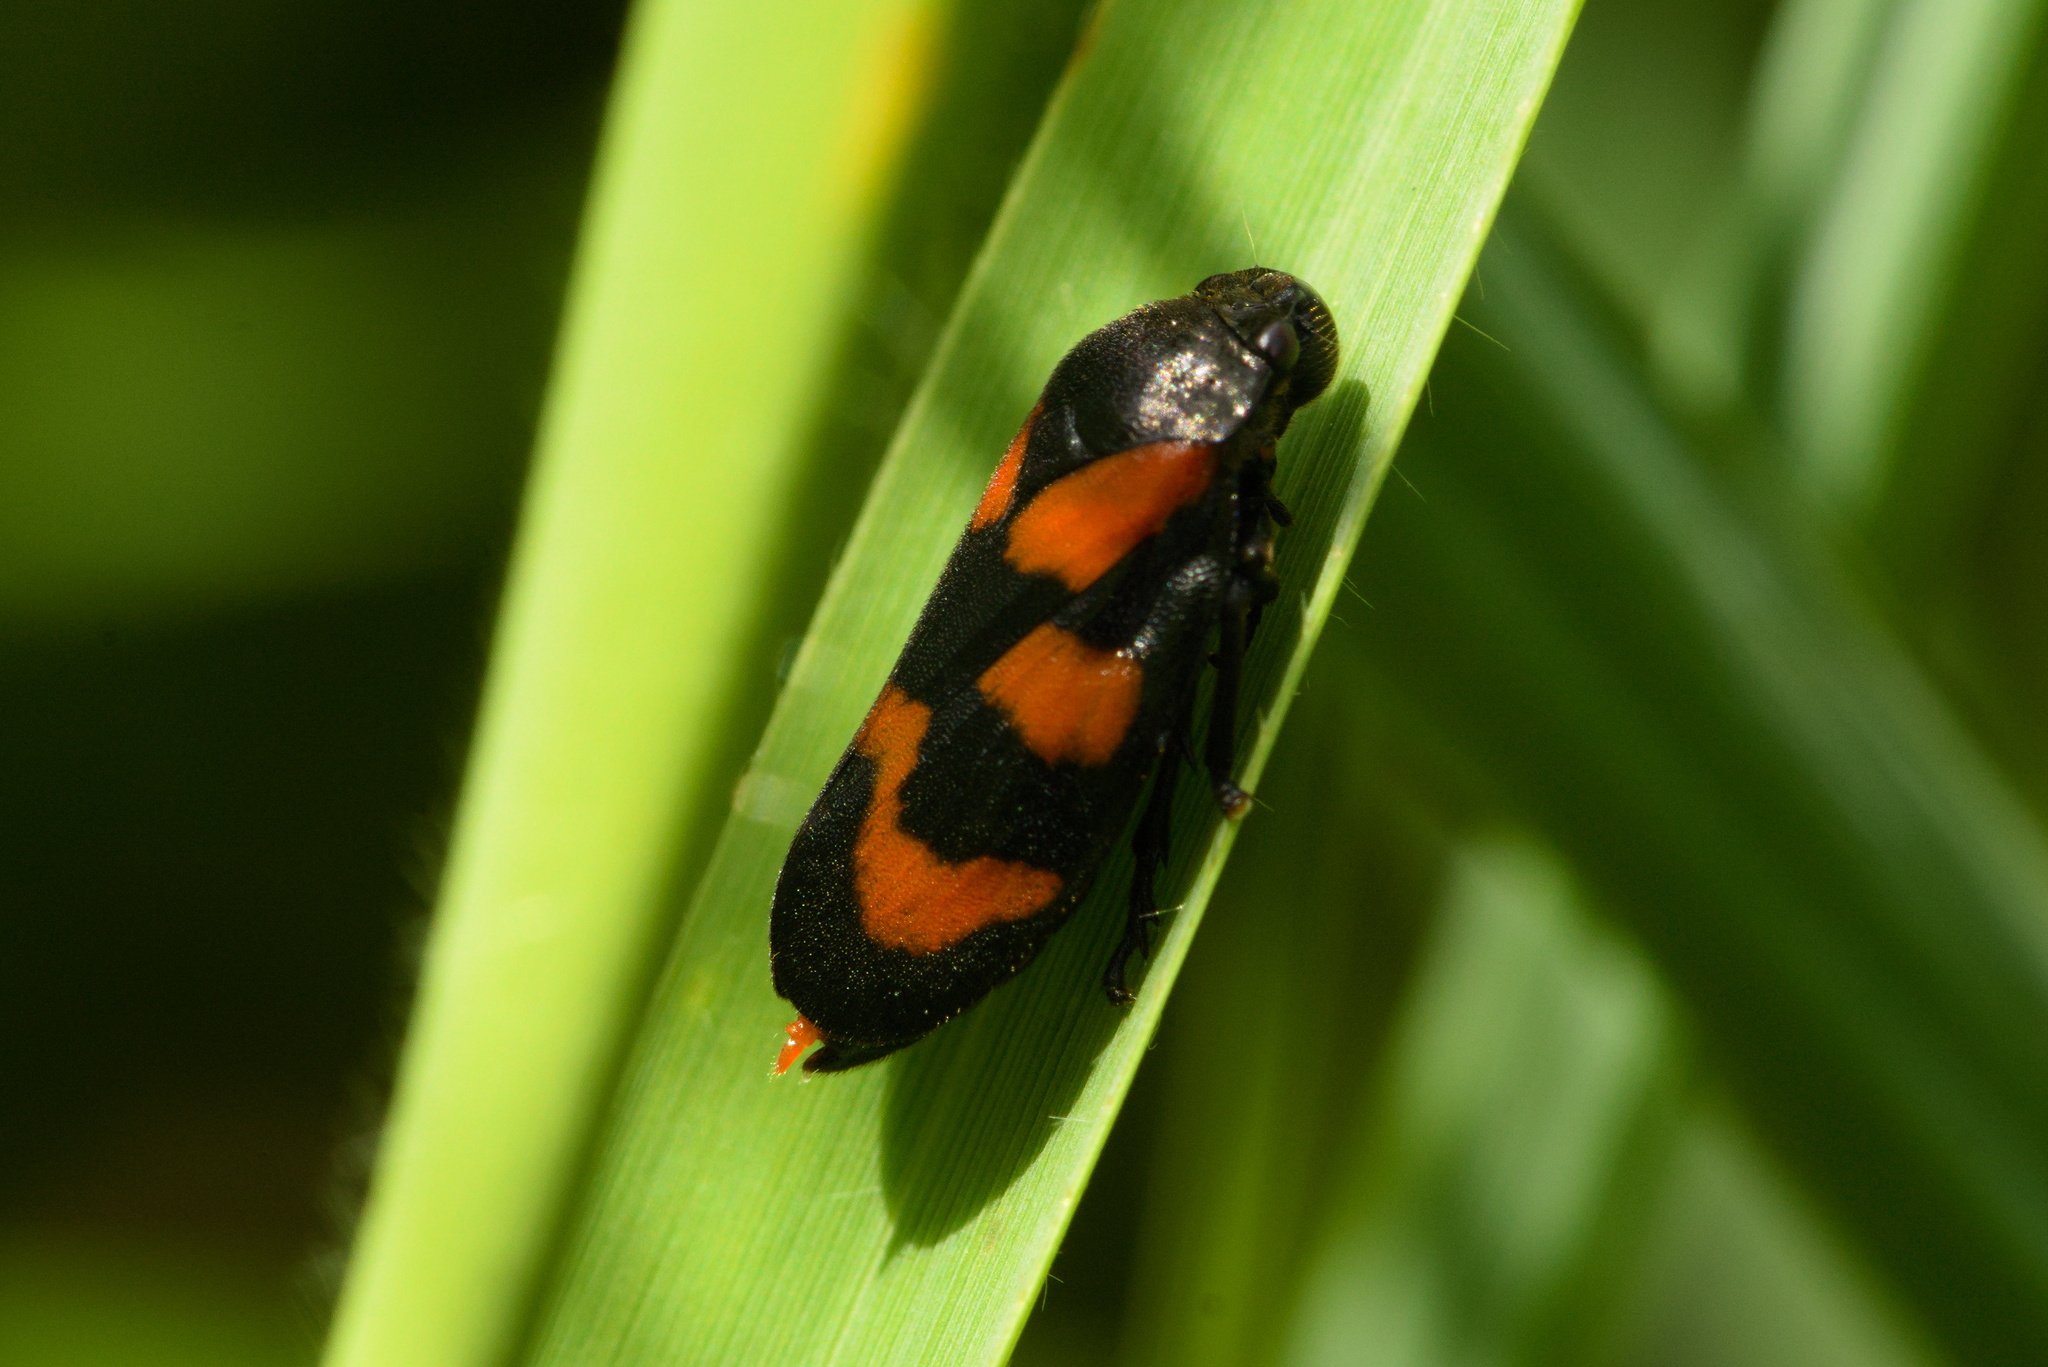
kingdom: Animalia
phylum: Arthropoda
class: Insecta
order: Hemiptera
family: Cercopidae
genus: Cercopis
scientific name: Cercopis vulnerata
